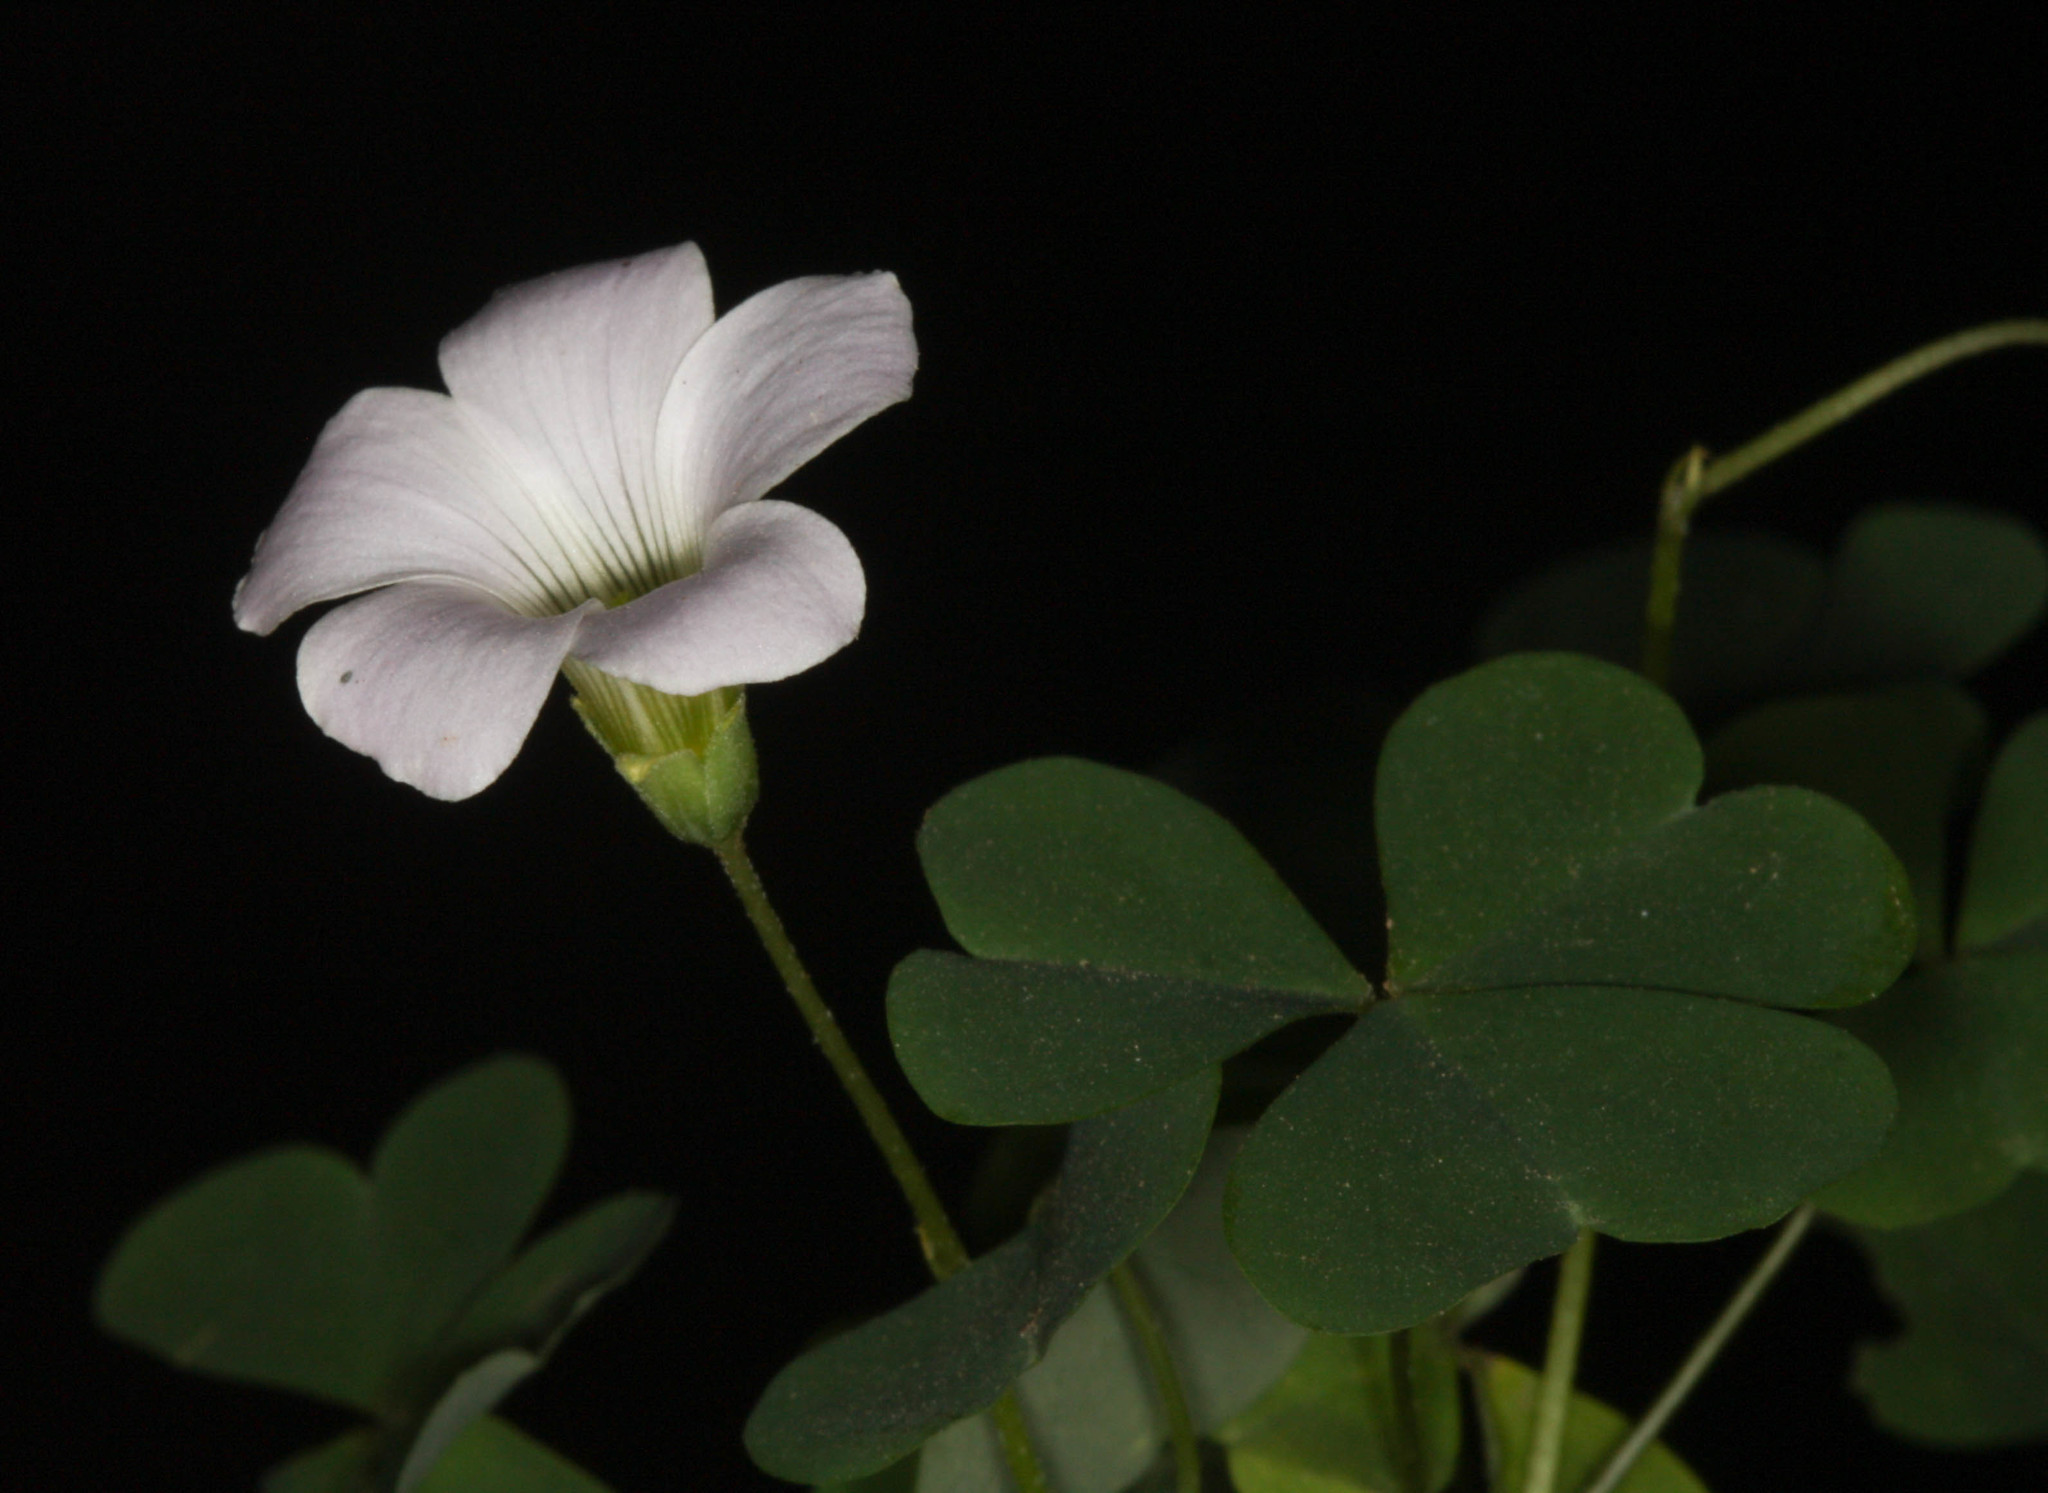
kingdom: Plantae
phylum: Tracheophyta
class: Magnoliopsida
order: Oxalidales
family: Oxalidaceae
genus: Oxalis
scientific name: Oxalis incarnata
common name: Pale pink-sorrel
